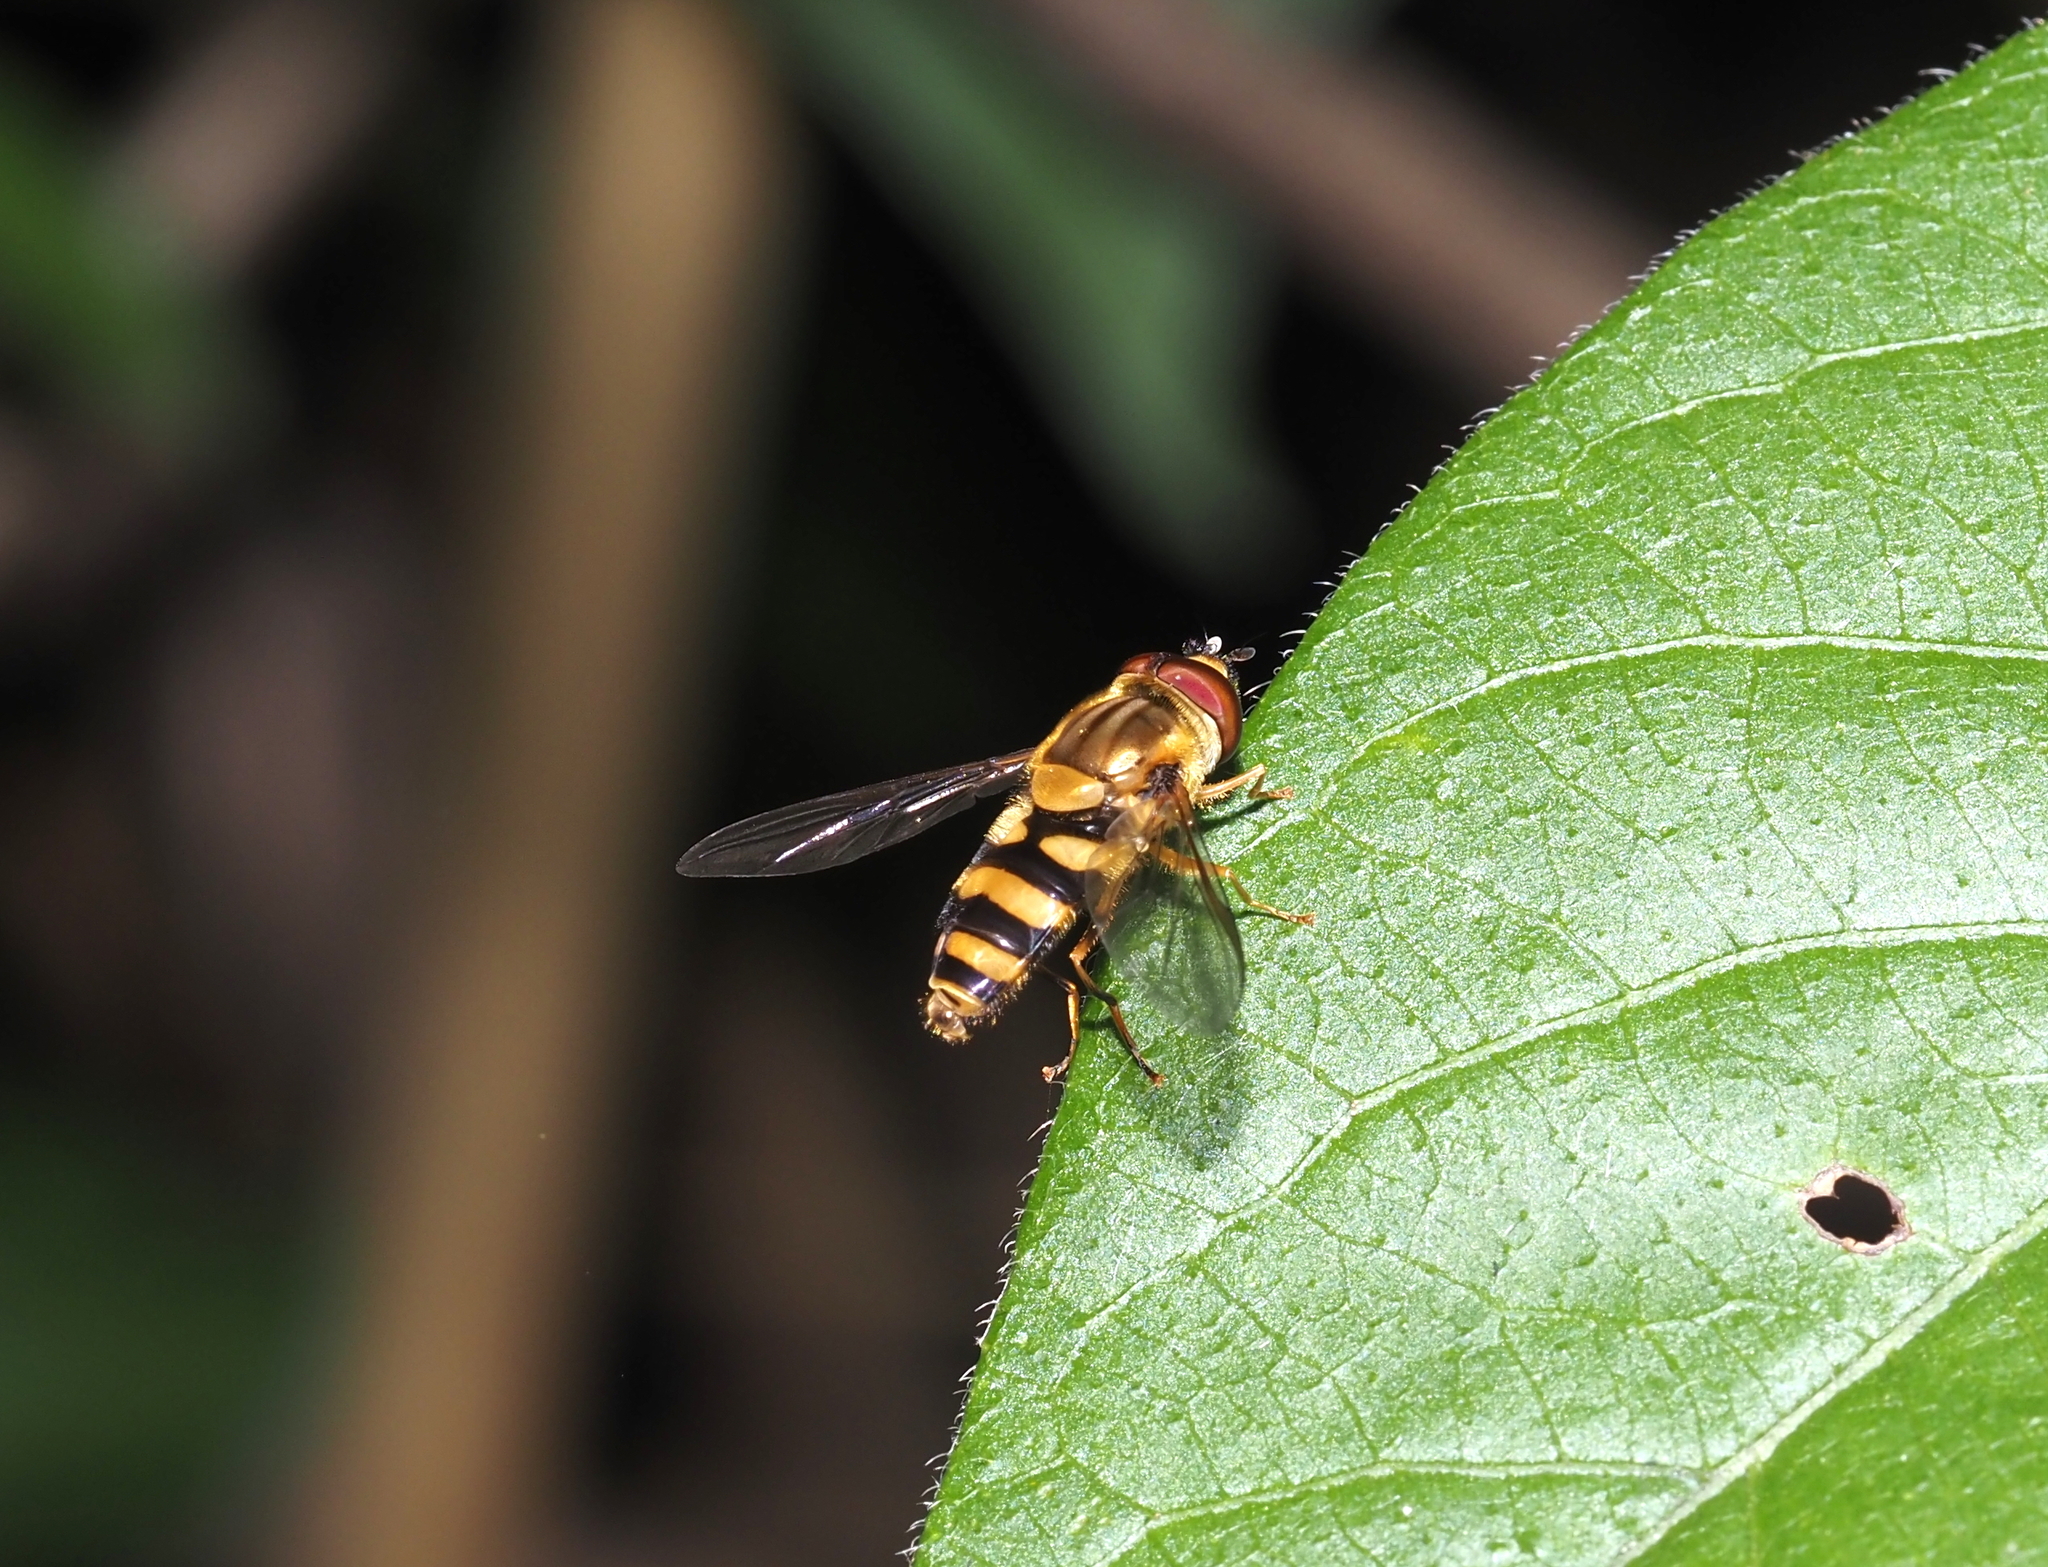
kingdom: Animalia
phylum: Arthropoda
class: Insecta
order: Diptera
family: Syrphidae
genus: Syrphus
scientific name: Syrphus knabi
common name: Eastern flower fly
